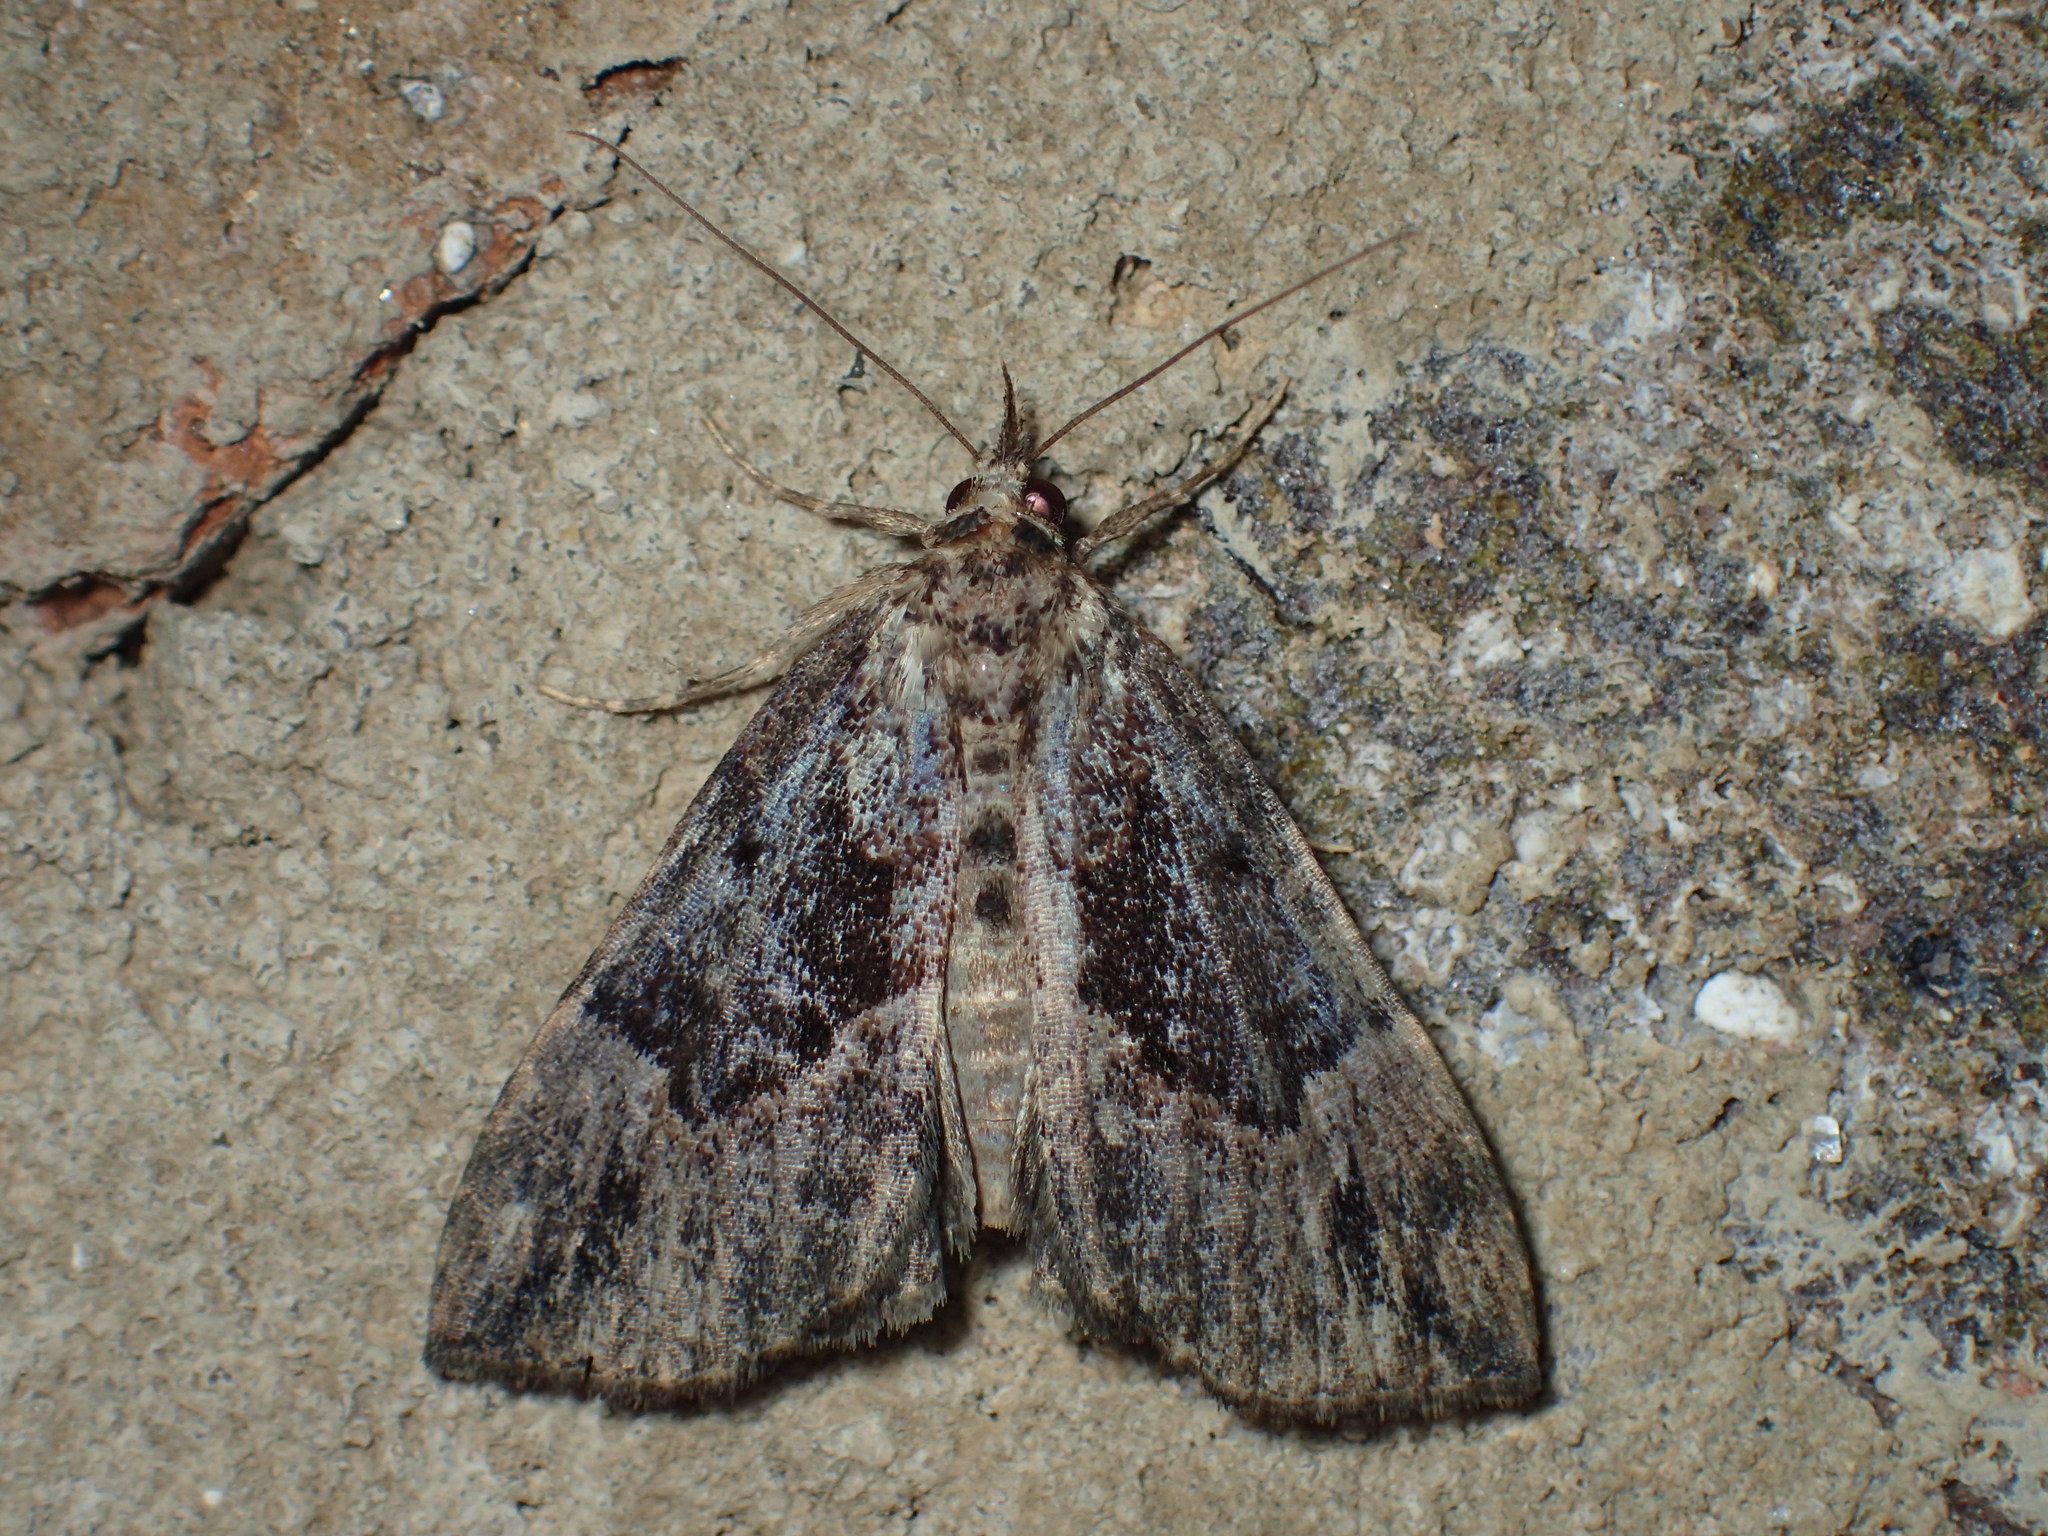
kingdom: Animalia
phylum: Arthropoda
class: Insecta
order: Lepidoptera
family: Erebidae
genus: Hypena
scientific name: Hypena palparia
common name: Mottled bomolocha moth
